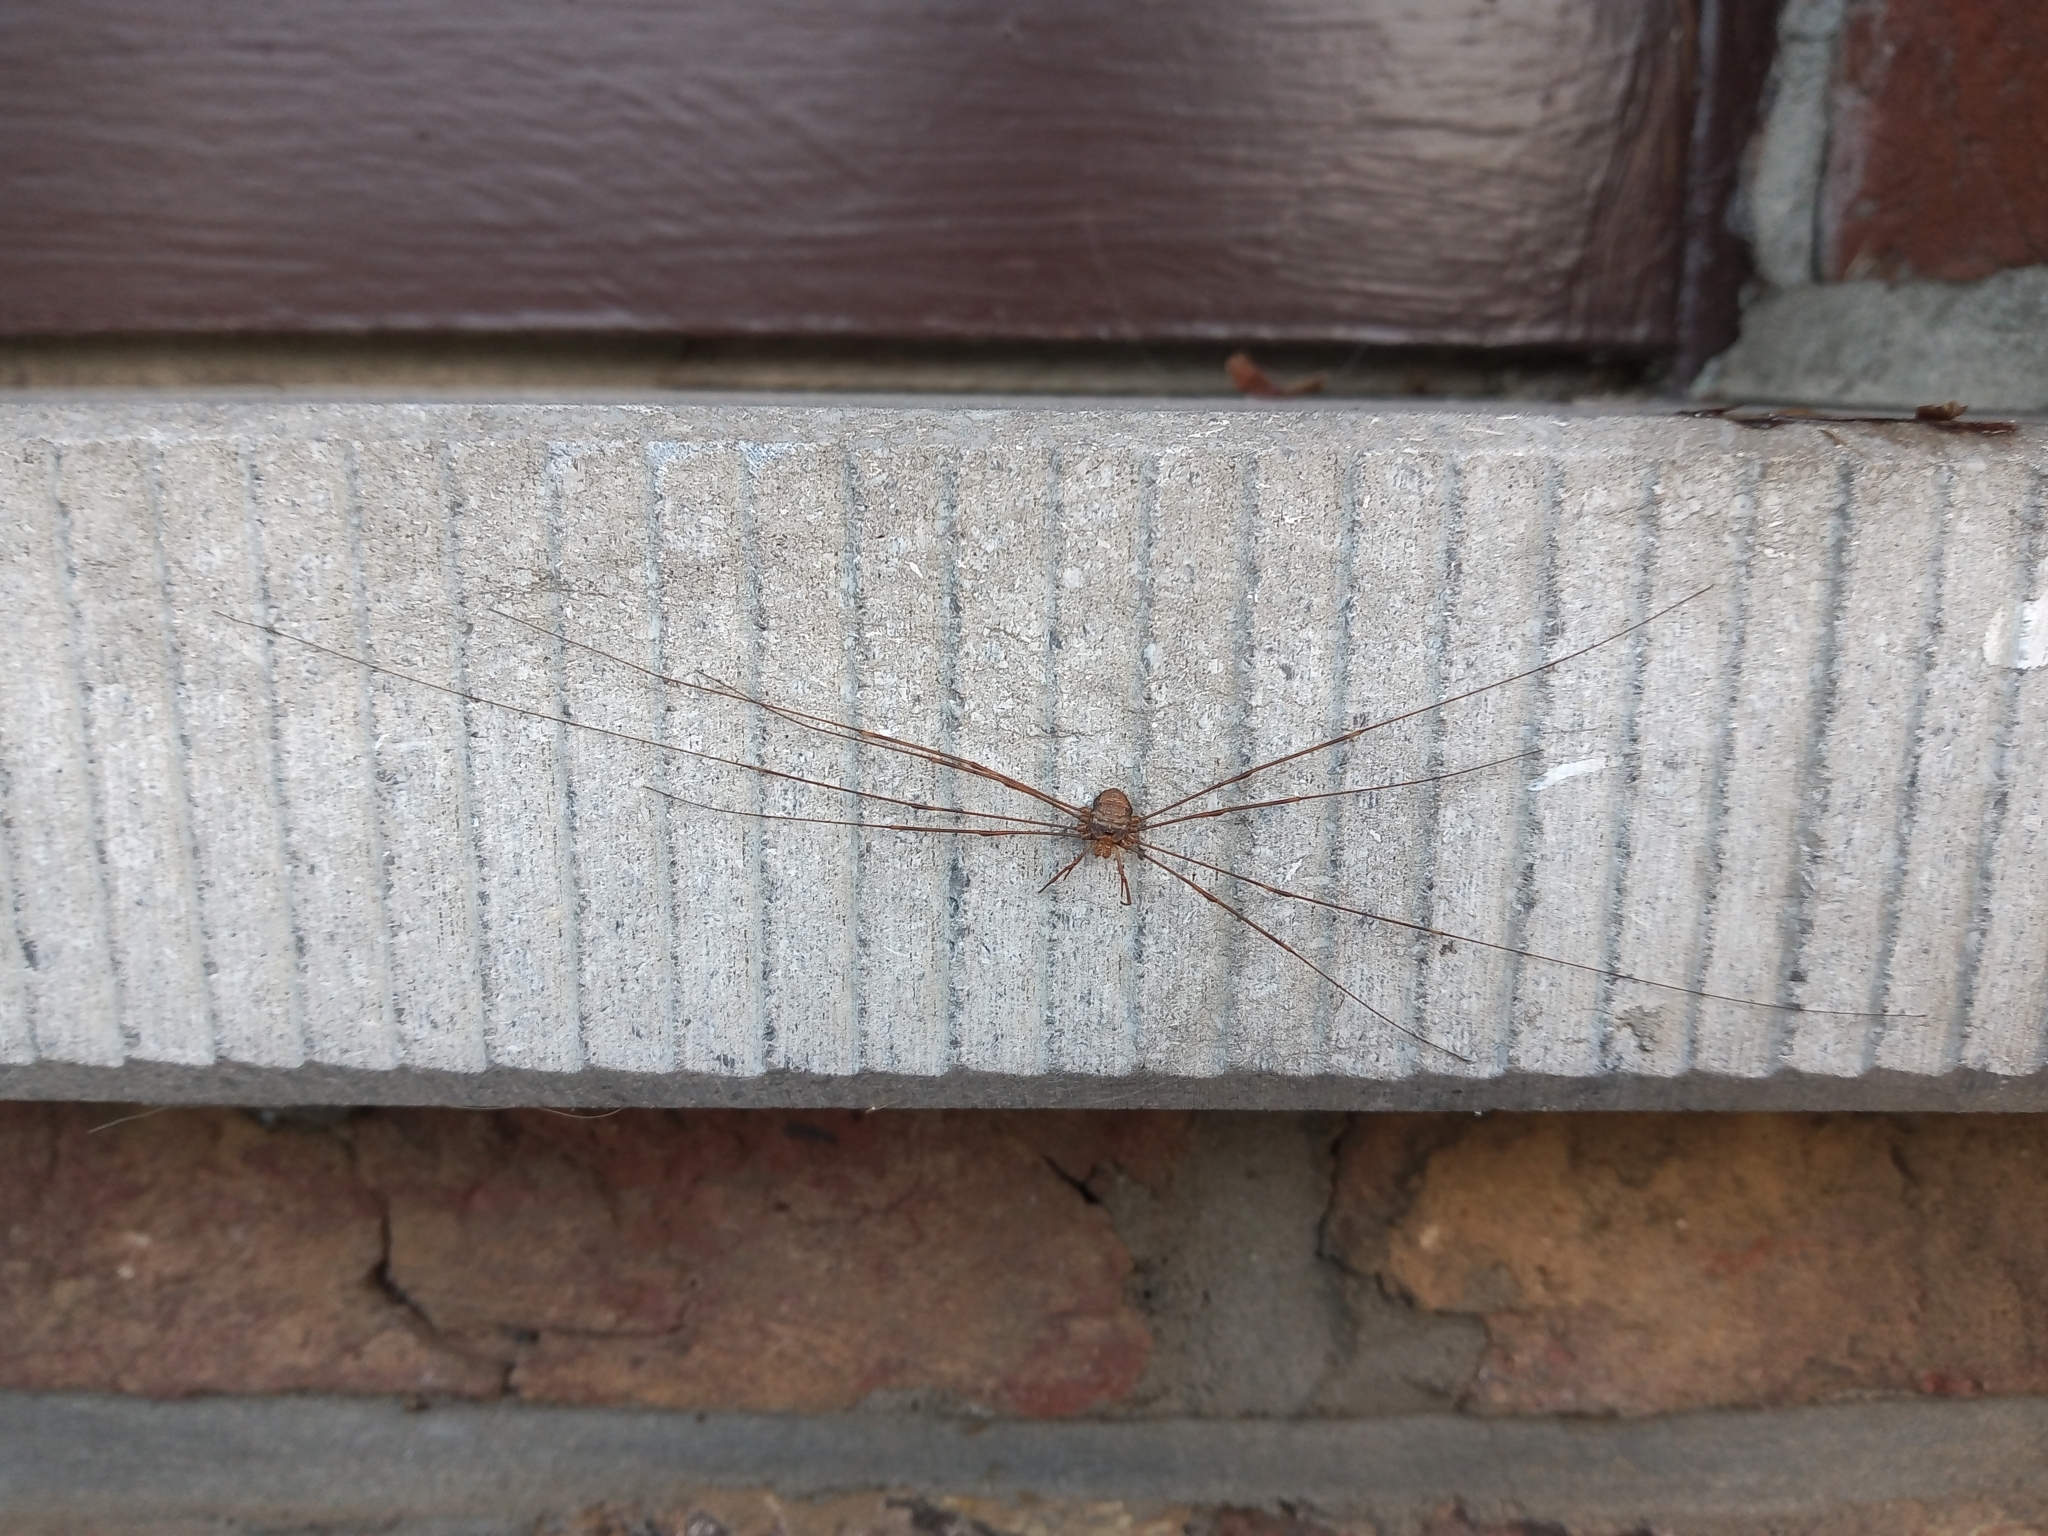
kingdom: Animalia
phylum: Arthropoda
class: Arachnida
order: Opiliones
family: Phalangiidae
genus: Dicranopalpus
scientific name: Dicranopalpus ramosus
